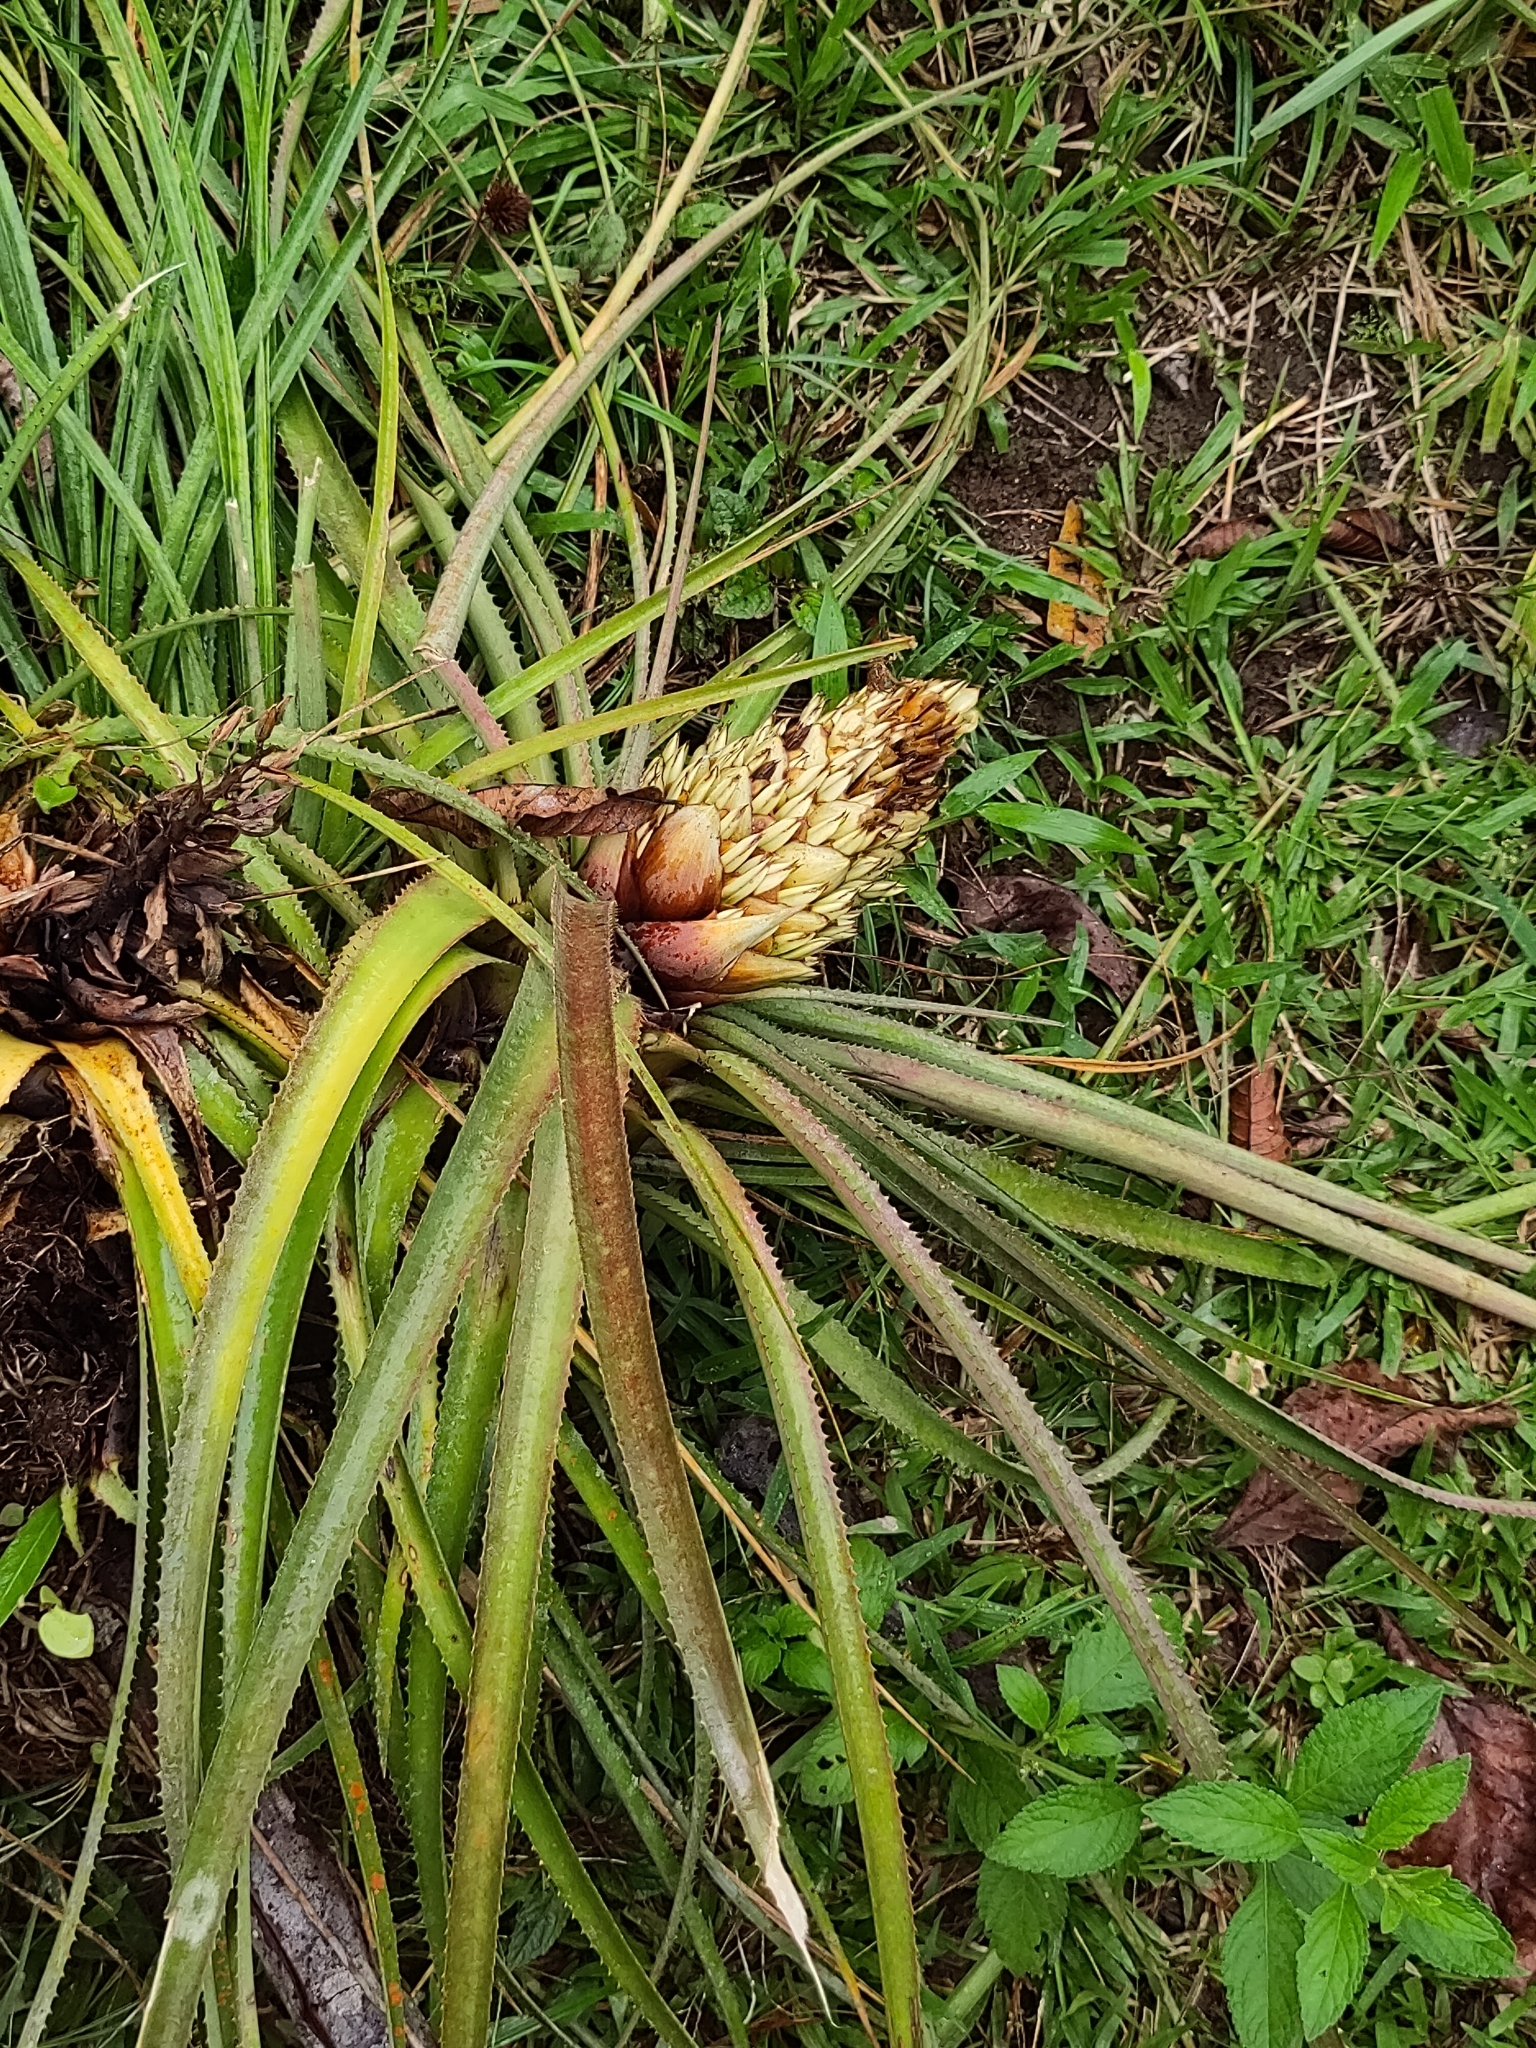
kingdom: Plantae
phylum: Tracheophyta
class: Liliopsida
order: Poales
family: Bromeliaceae
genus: Aechmea
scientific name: Aechmea longifolia
